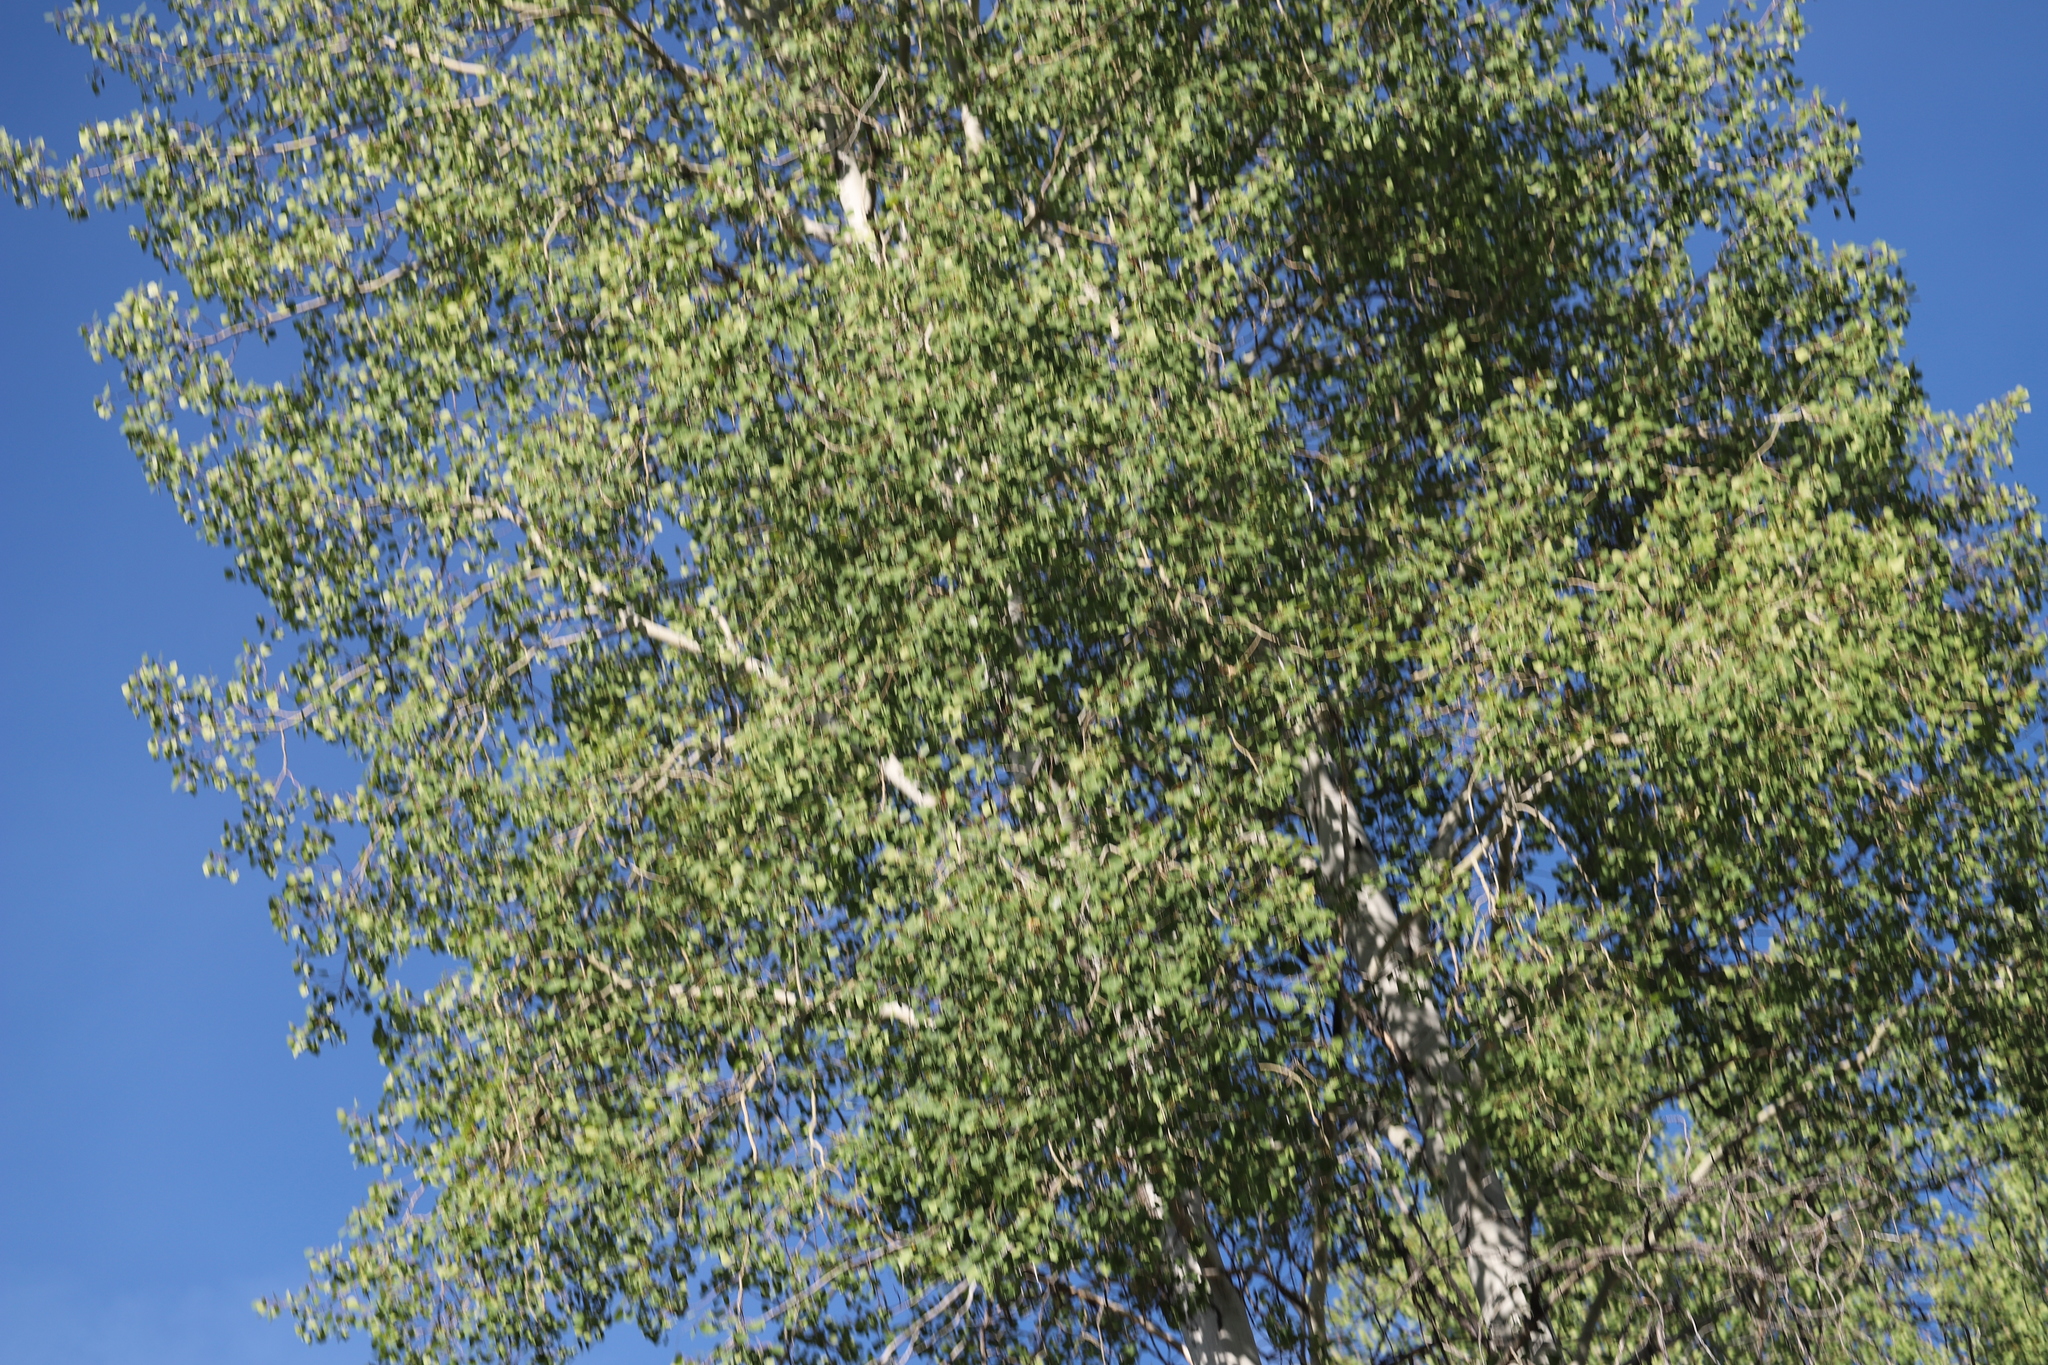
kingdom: Plantae
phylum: Tracheophyta
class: Magnoliopsida
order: Malpighiales
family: Salicaceae
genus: Populus
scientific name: Populus tremuloides
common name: Quaking aspen
